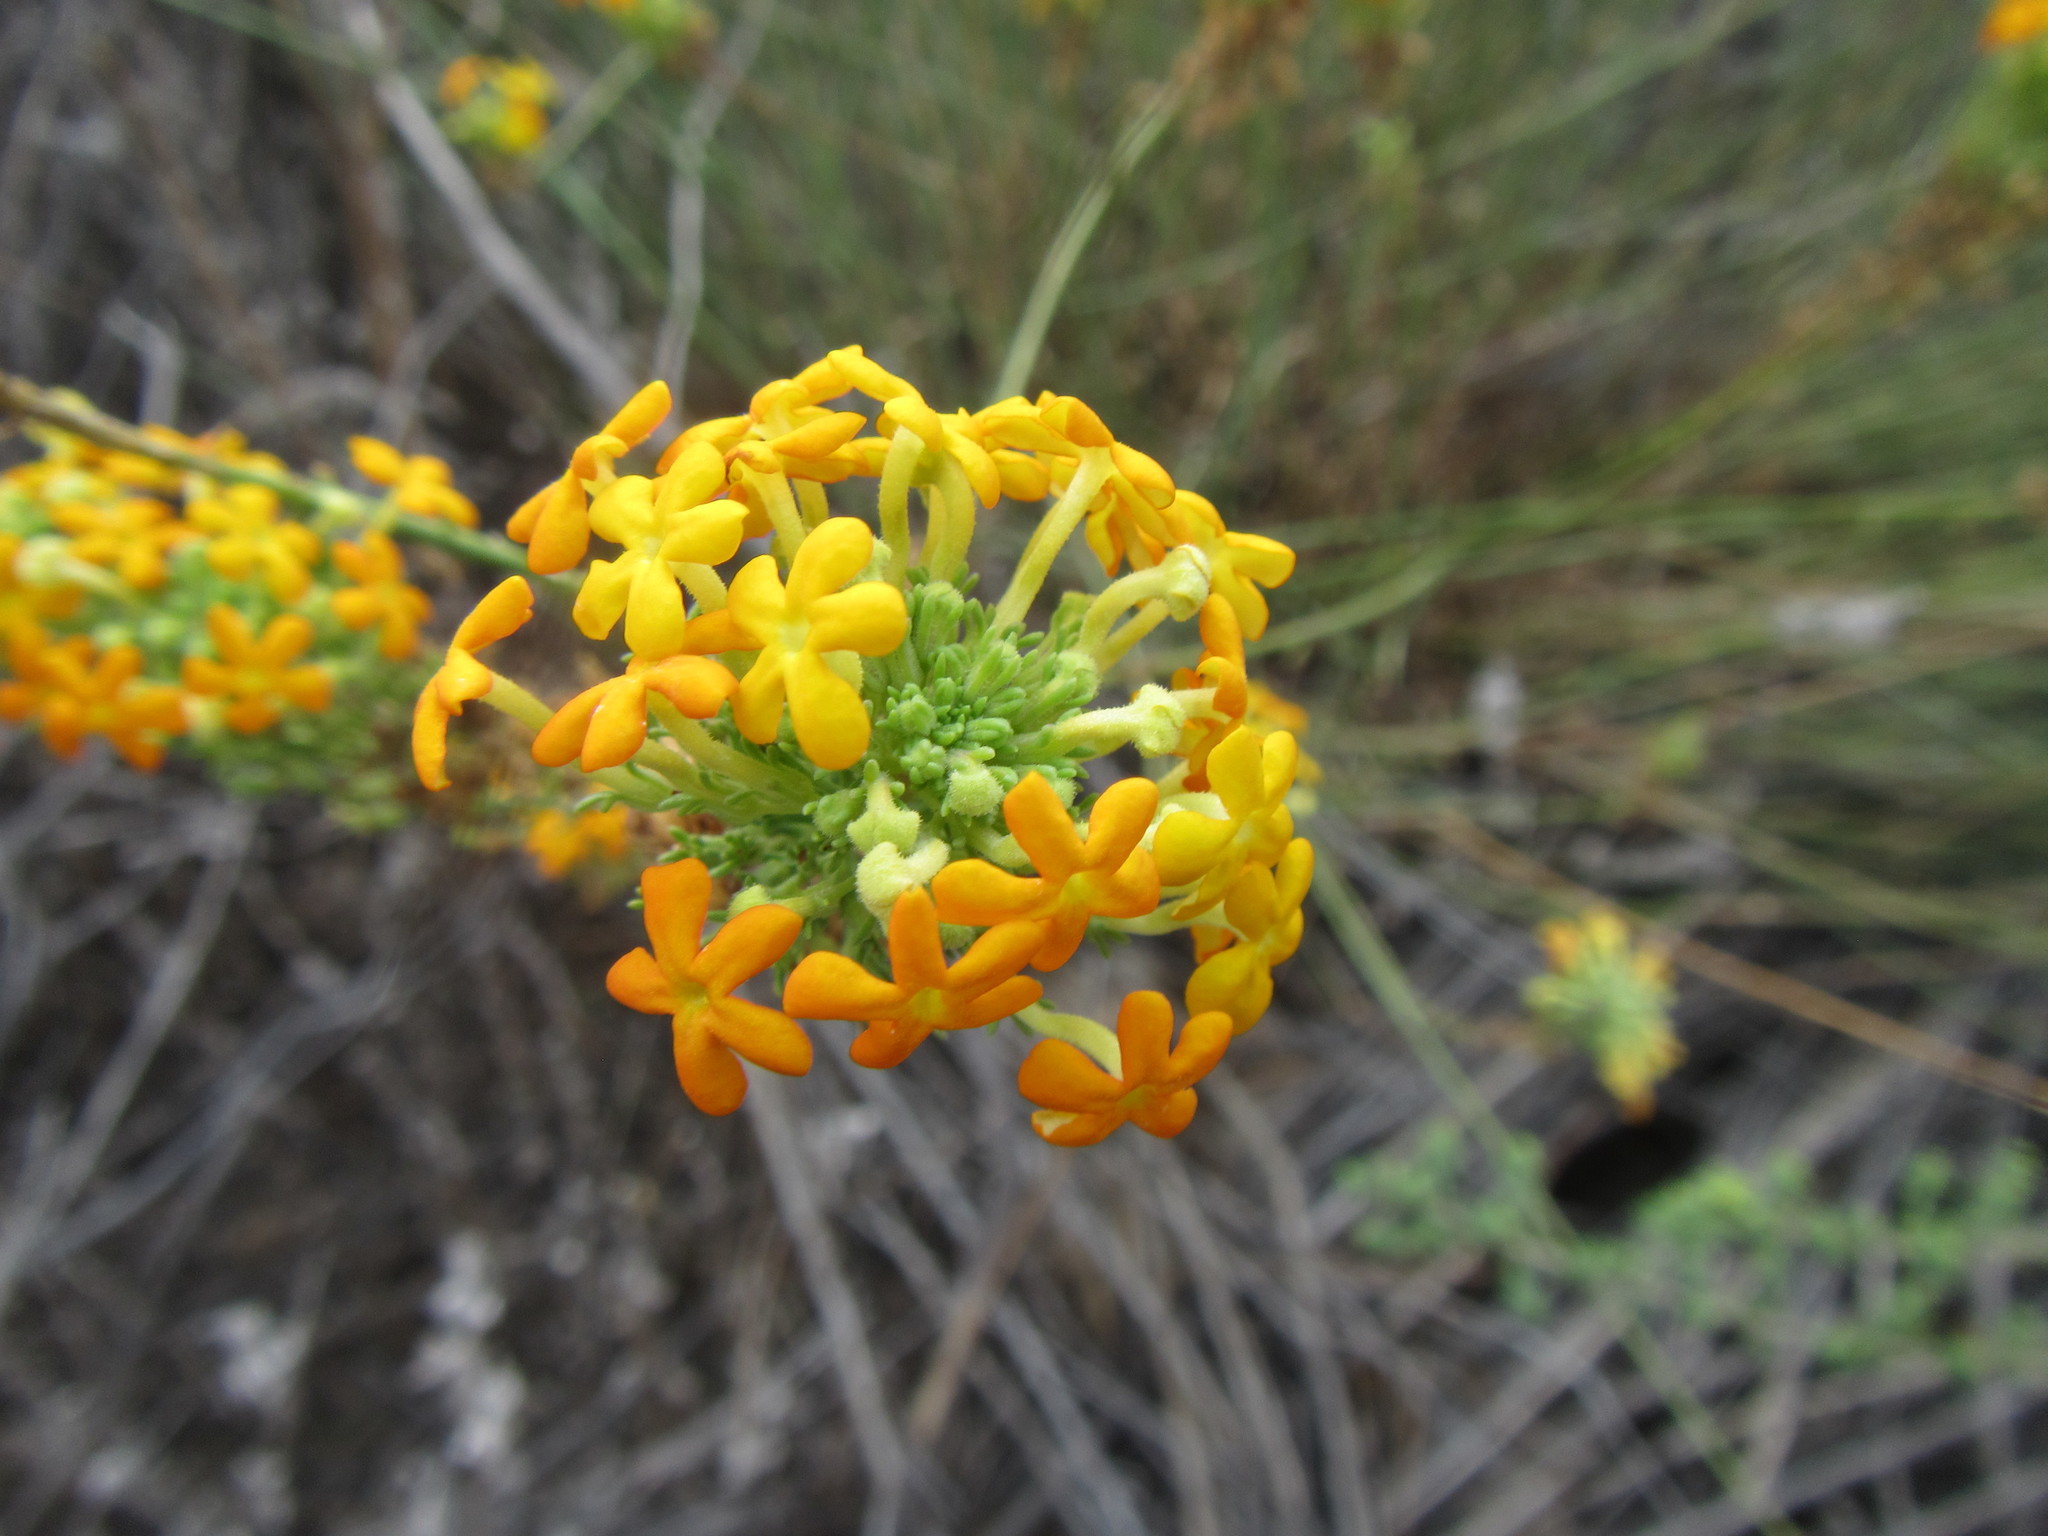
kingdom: Plantae
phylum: Tracheophyta
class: Magnoliopsida
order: Lamiales
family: Scrophulariaceae
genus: Manulea
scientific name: Manulea cephalotes
